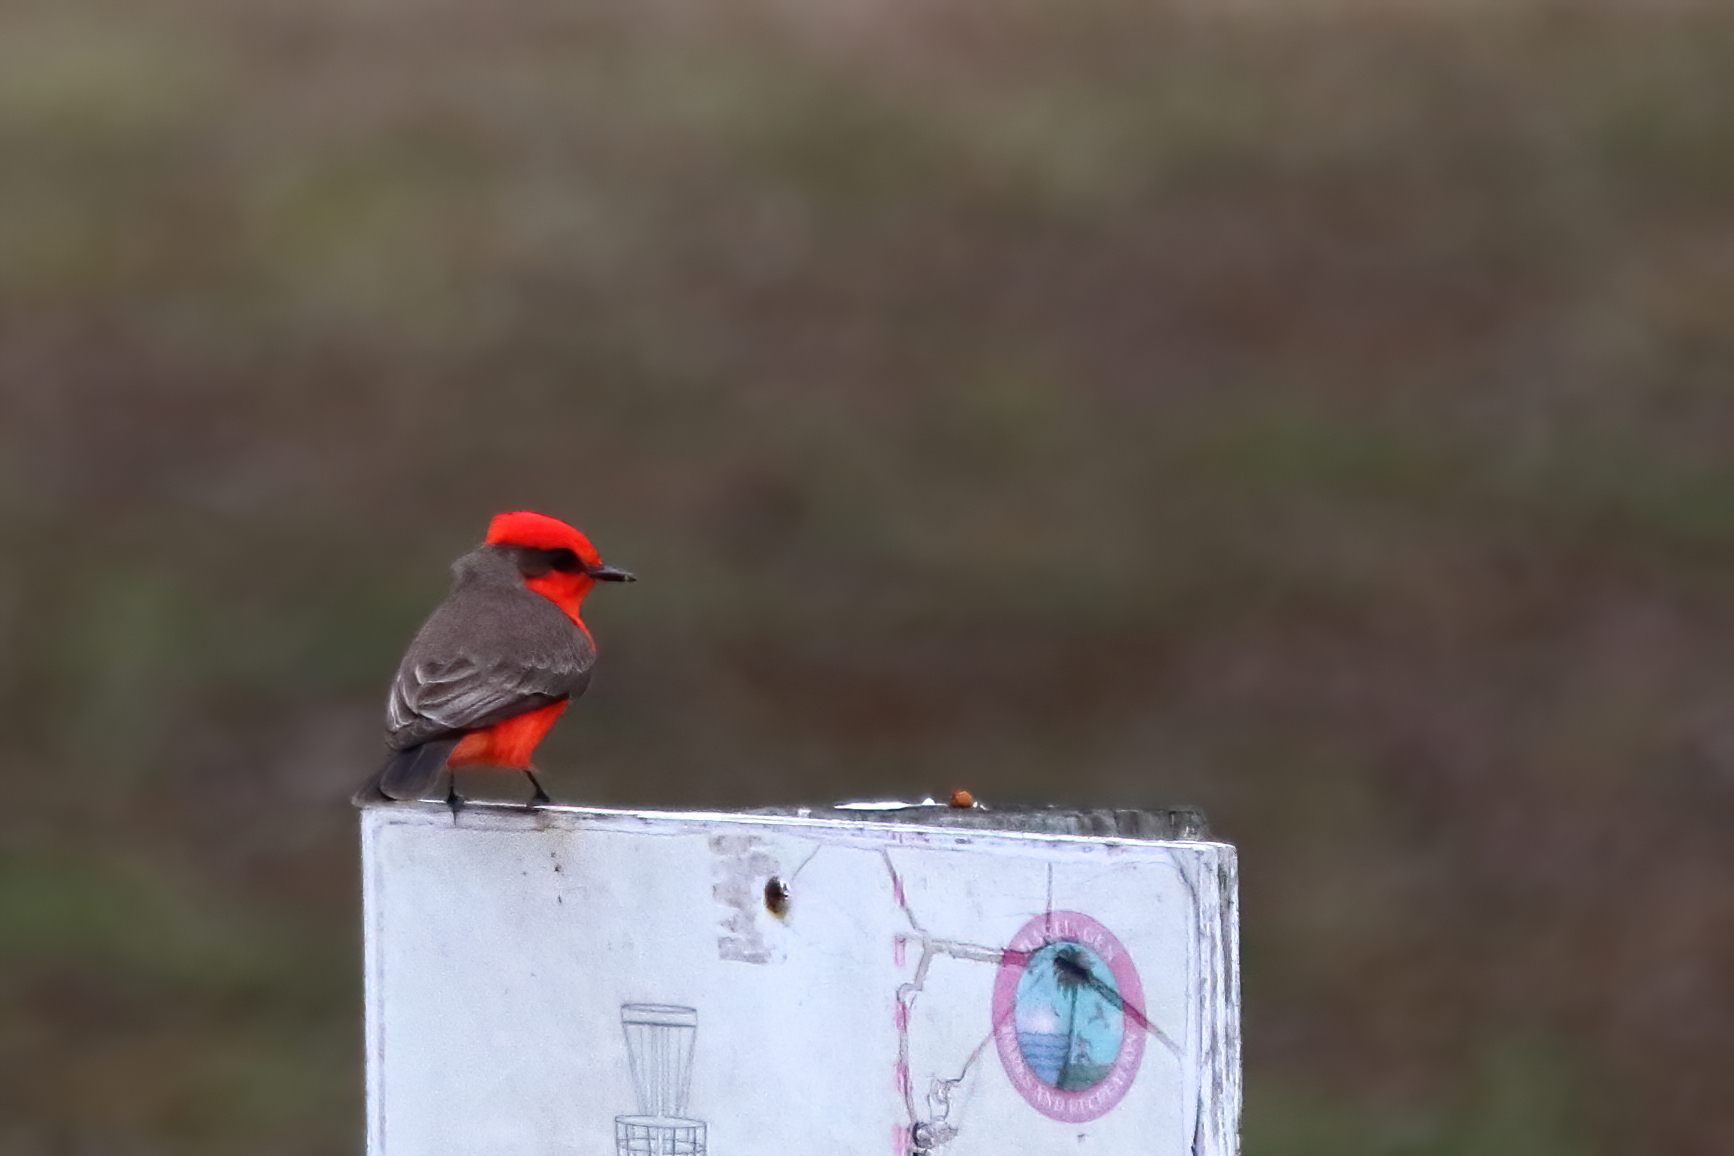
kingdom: Animalia
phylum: Chordata
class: Aves
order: Passeriformes
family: Tyrannidae
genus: Pyrocephalus
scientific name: Pyrocephalus rubinus
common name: Vermilion flycatcher
